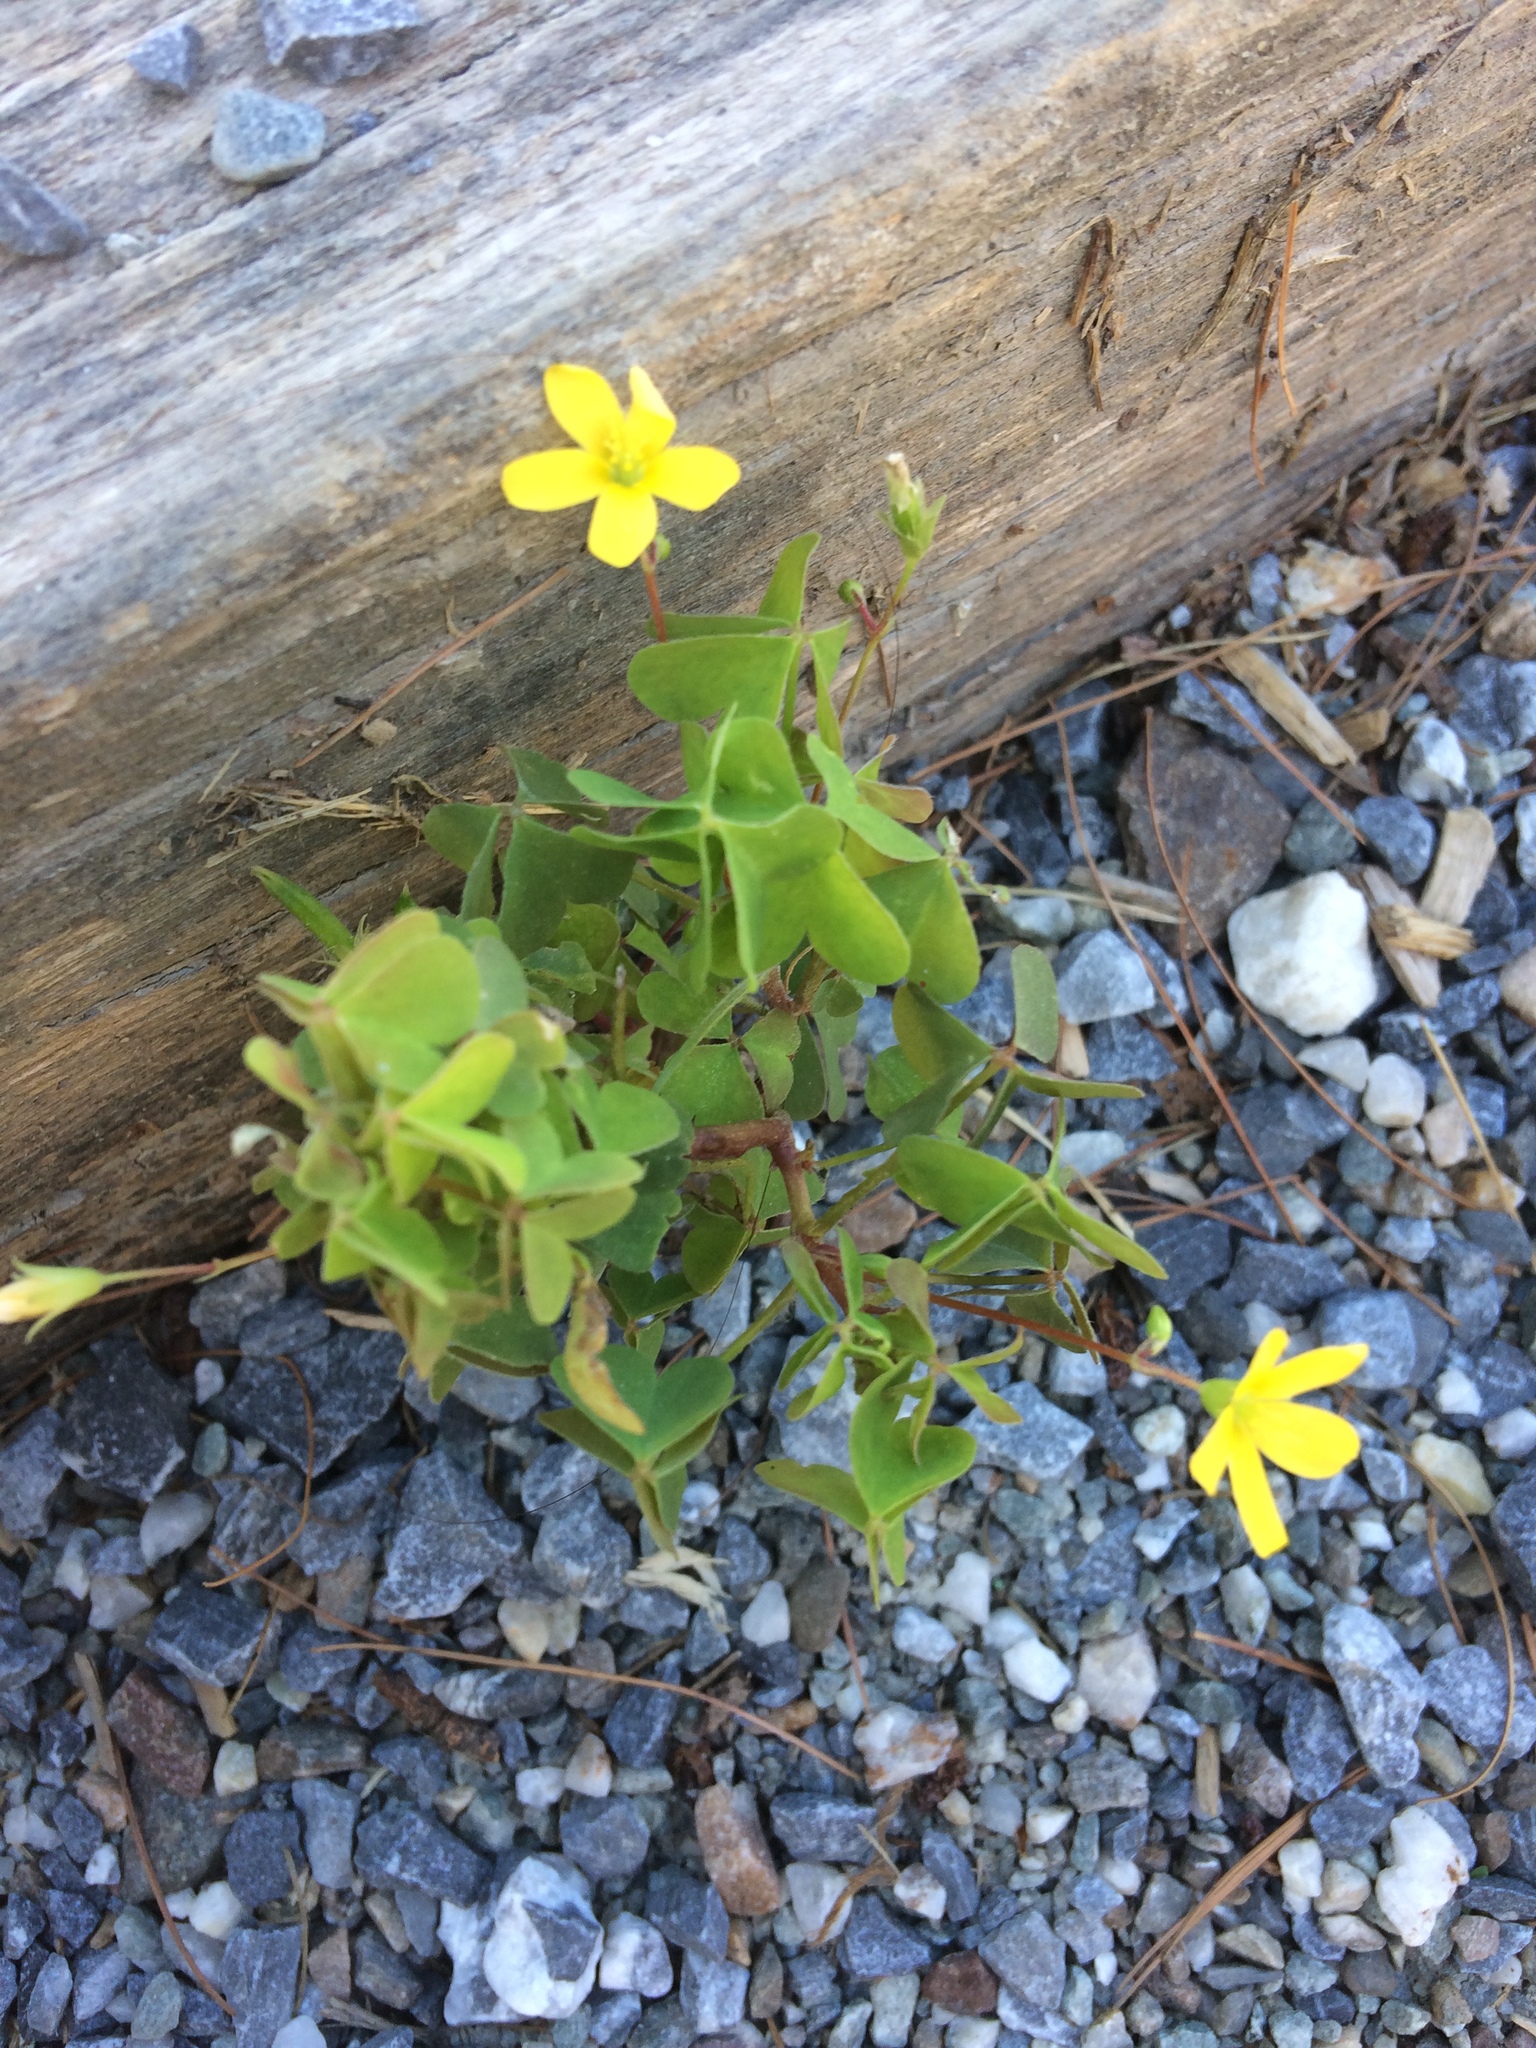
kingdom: Plantae
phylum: Tracheophyta
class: Magnoliopsida
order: Oxalidales
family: Oxalidaceae
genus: Oxalis
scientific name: Oxalis stricta
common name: Upright yellow-sorrel
